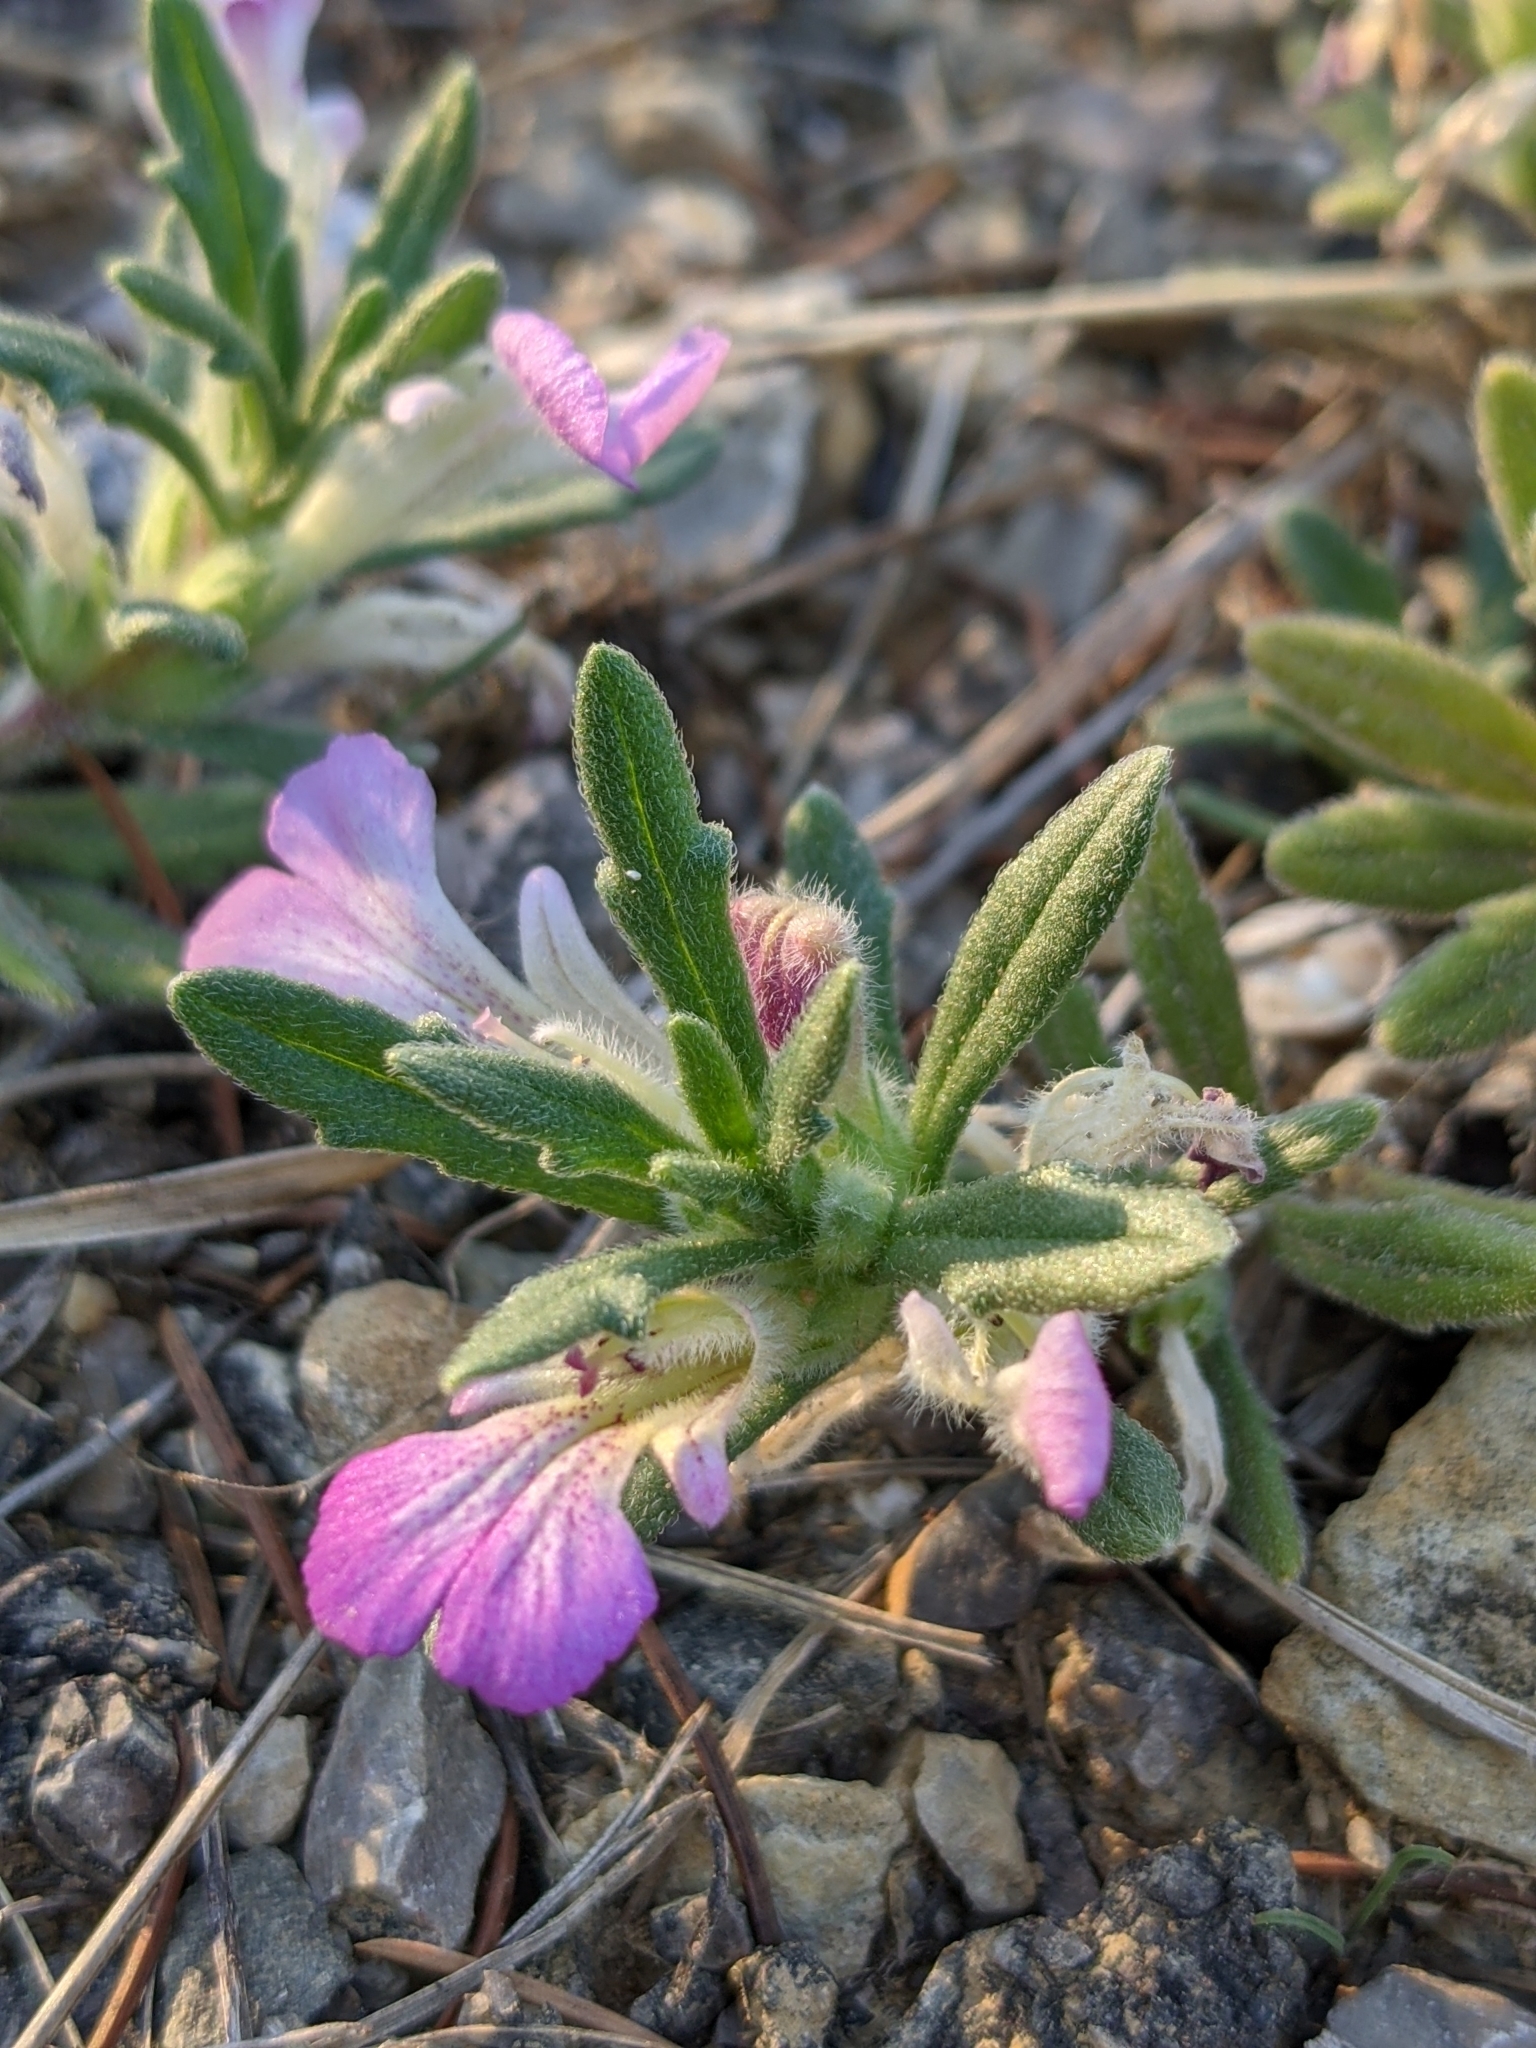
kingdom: Plantae
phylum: Tracheophyta
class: Magnoliopsida
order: Lamiales
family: Lamiaceae
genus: Ajuga
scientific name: Ajuga iva
